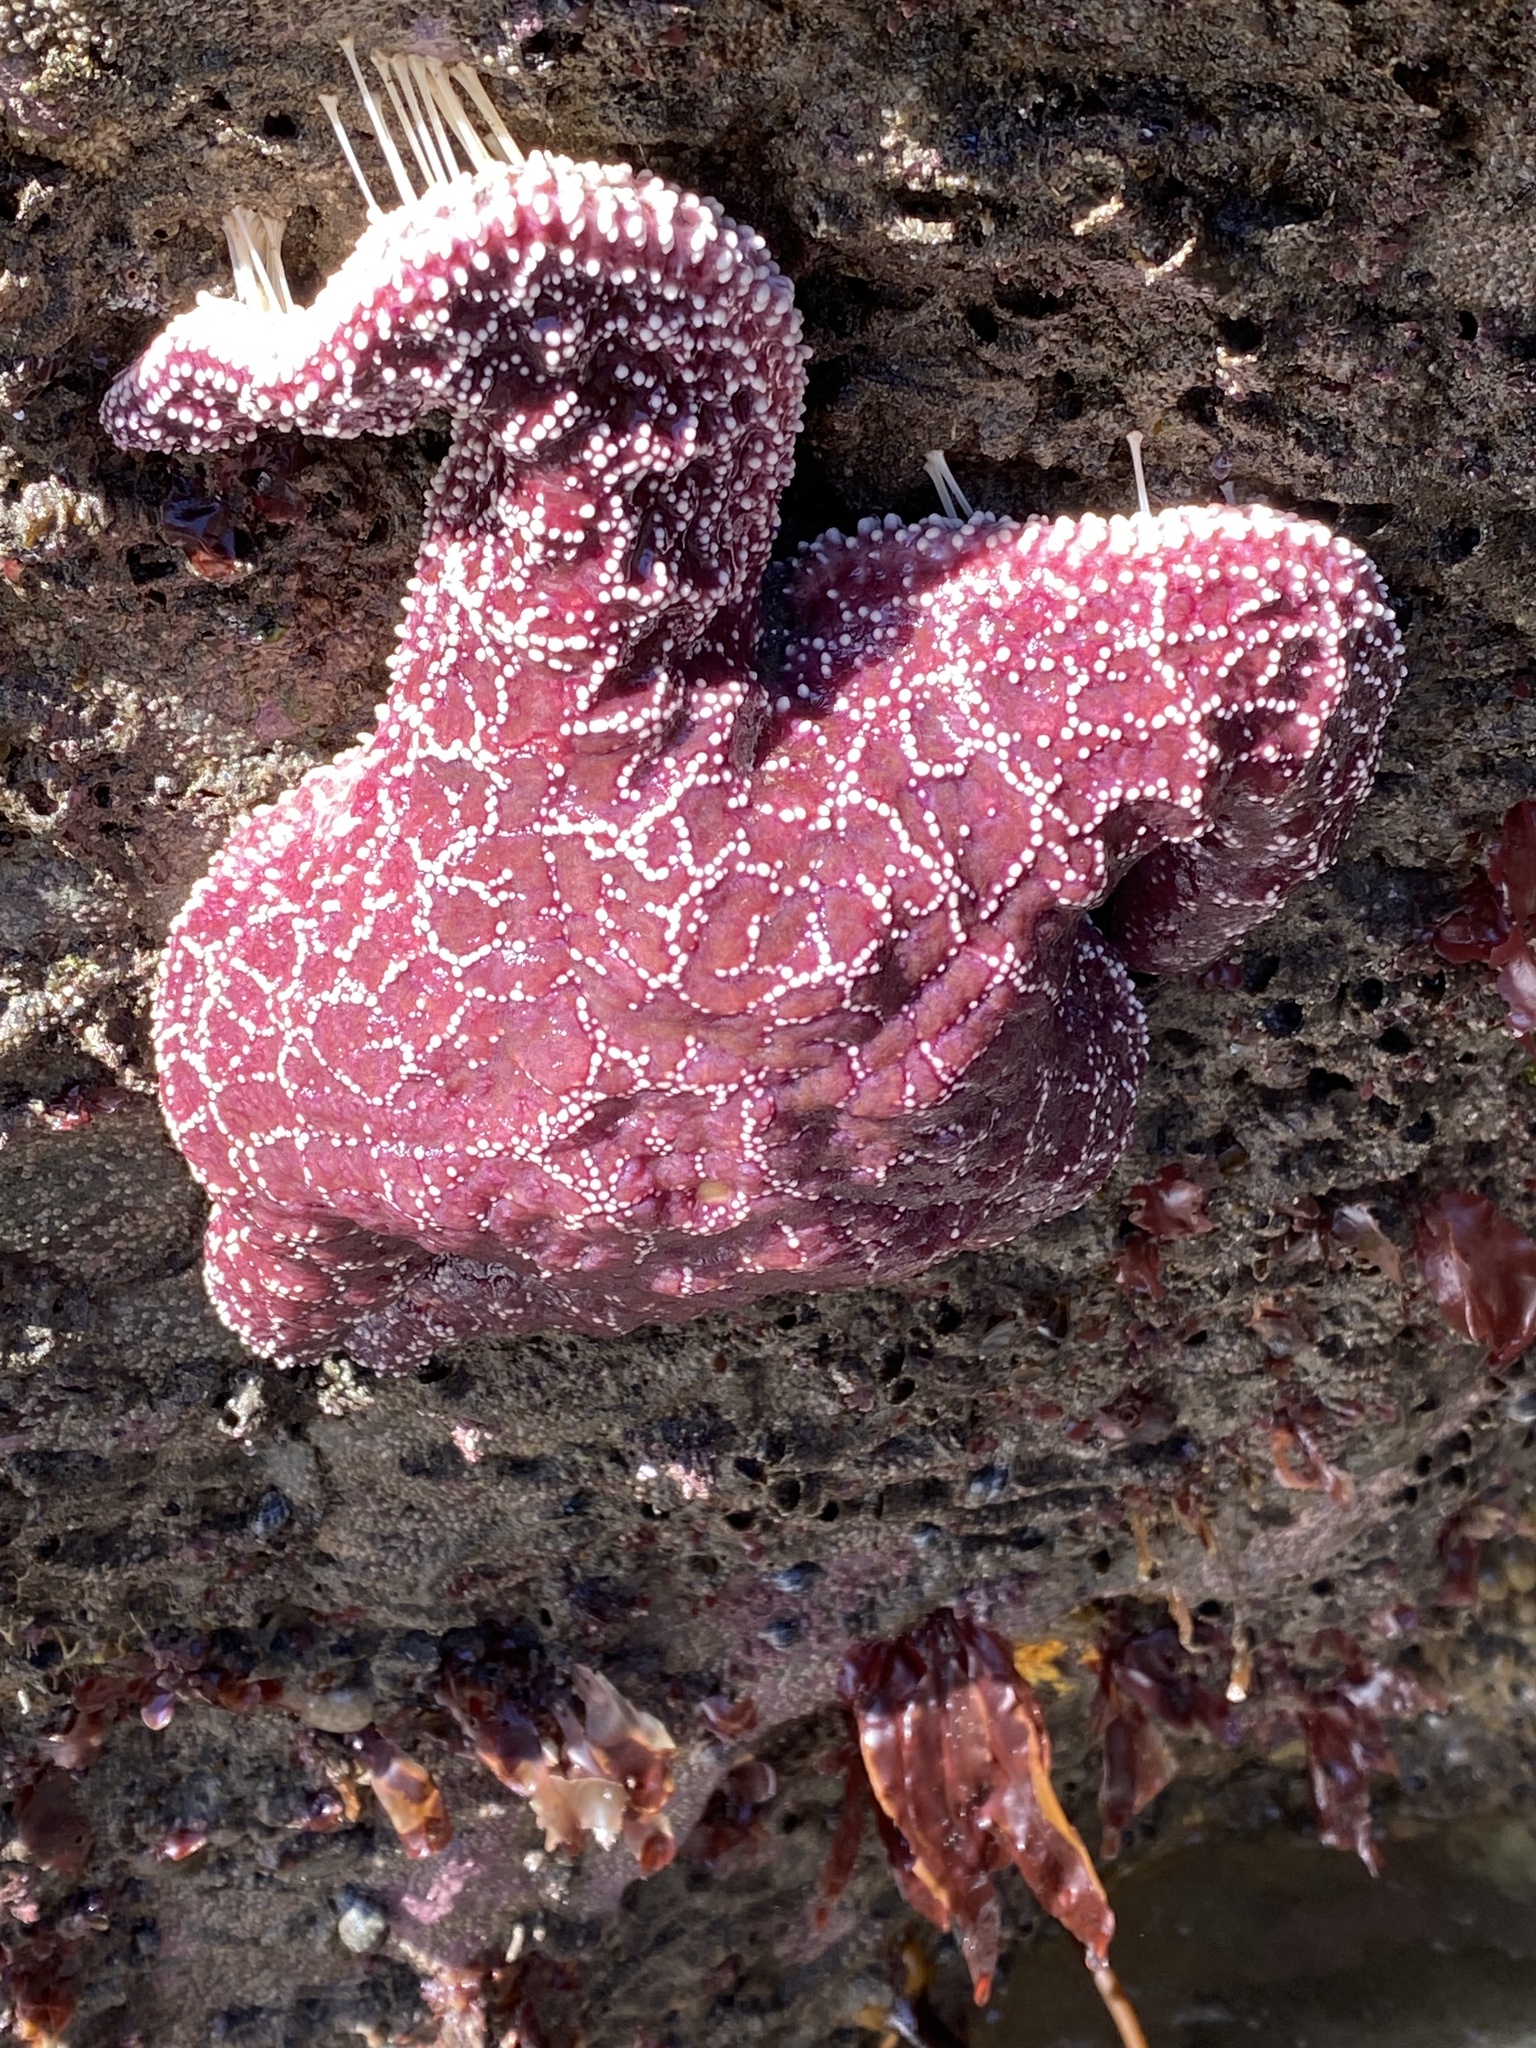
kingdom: Animalia
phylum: Echinodermata
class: Asteroidea
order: Forcipulatida
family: Asteriidae
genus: Pisaster
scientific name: Pisaster ochraceus
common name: Ochre stars
